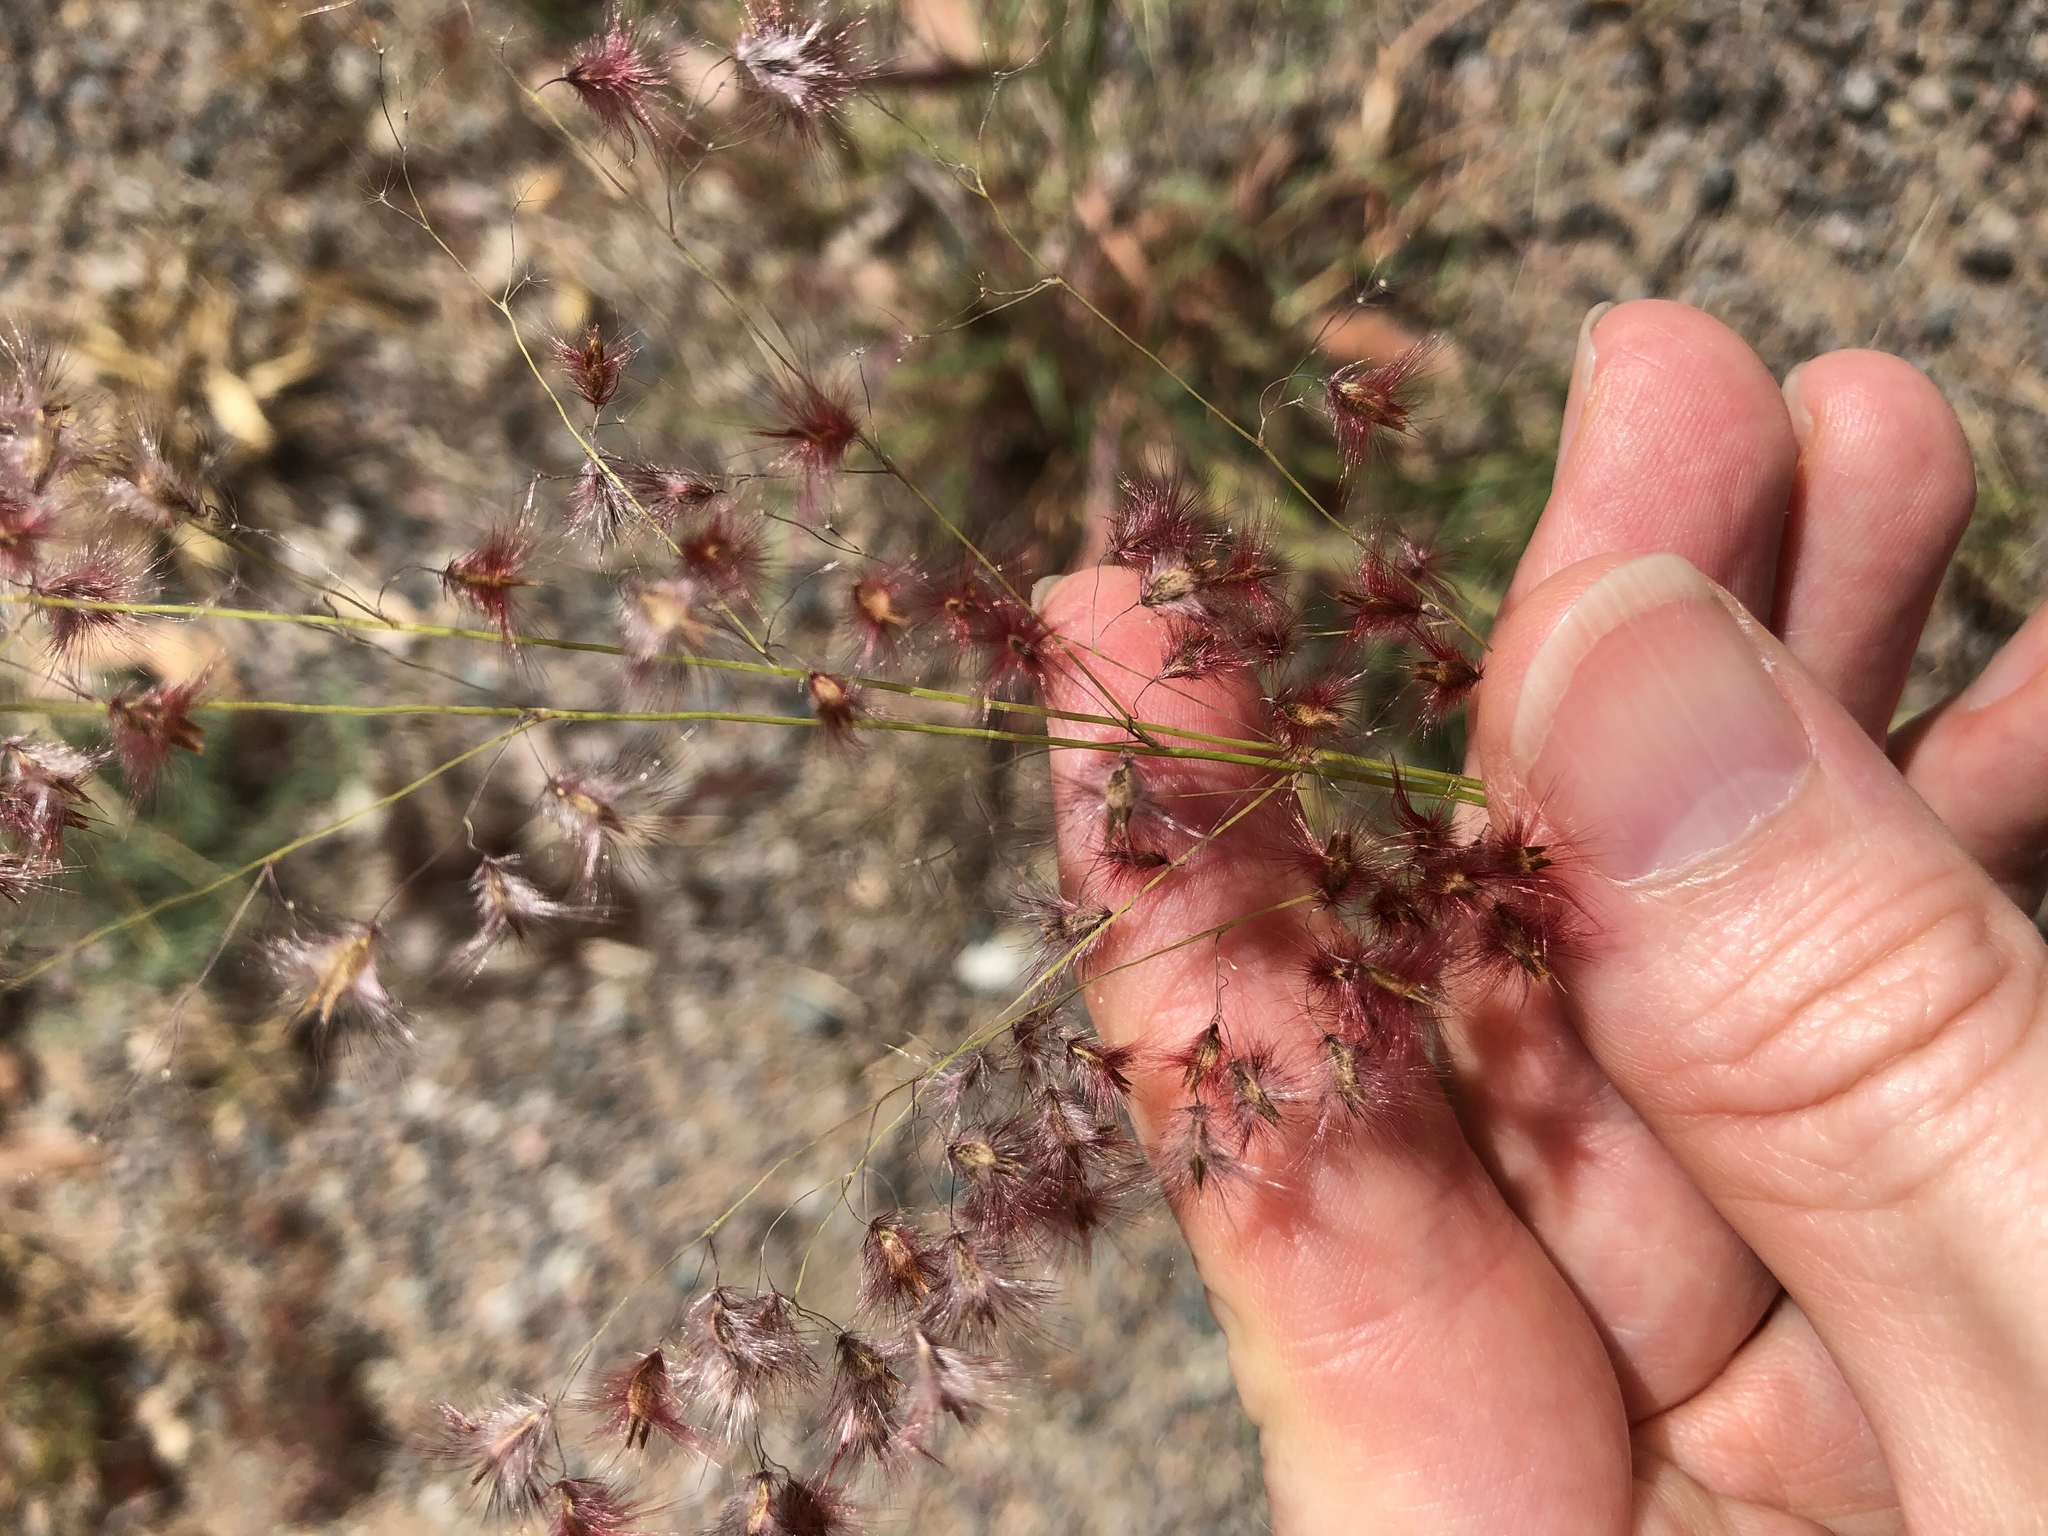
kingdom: Plantae
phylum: Tracheophyta
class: Liliopsida
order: Poales
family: Poaceae
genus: Melinis
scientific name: Melinis repens
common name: Rose natal grass
